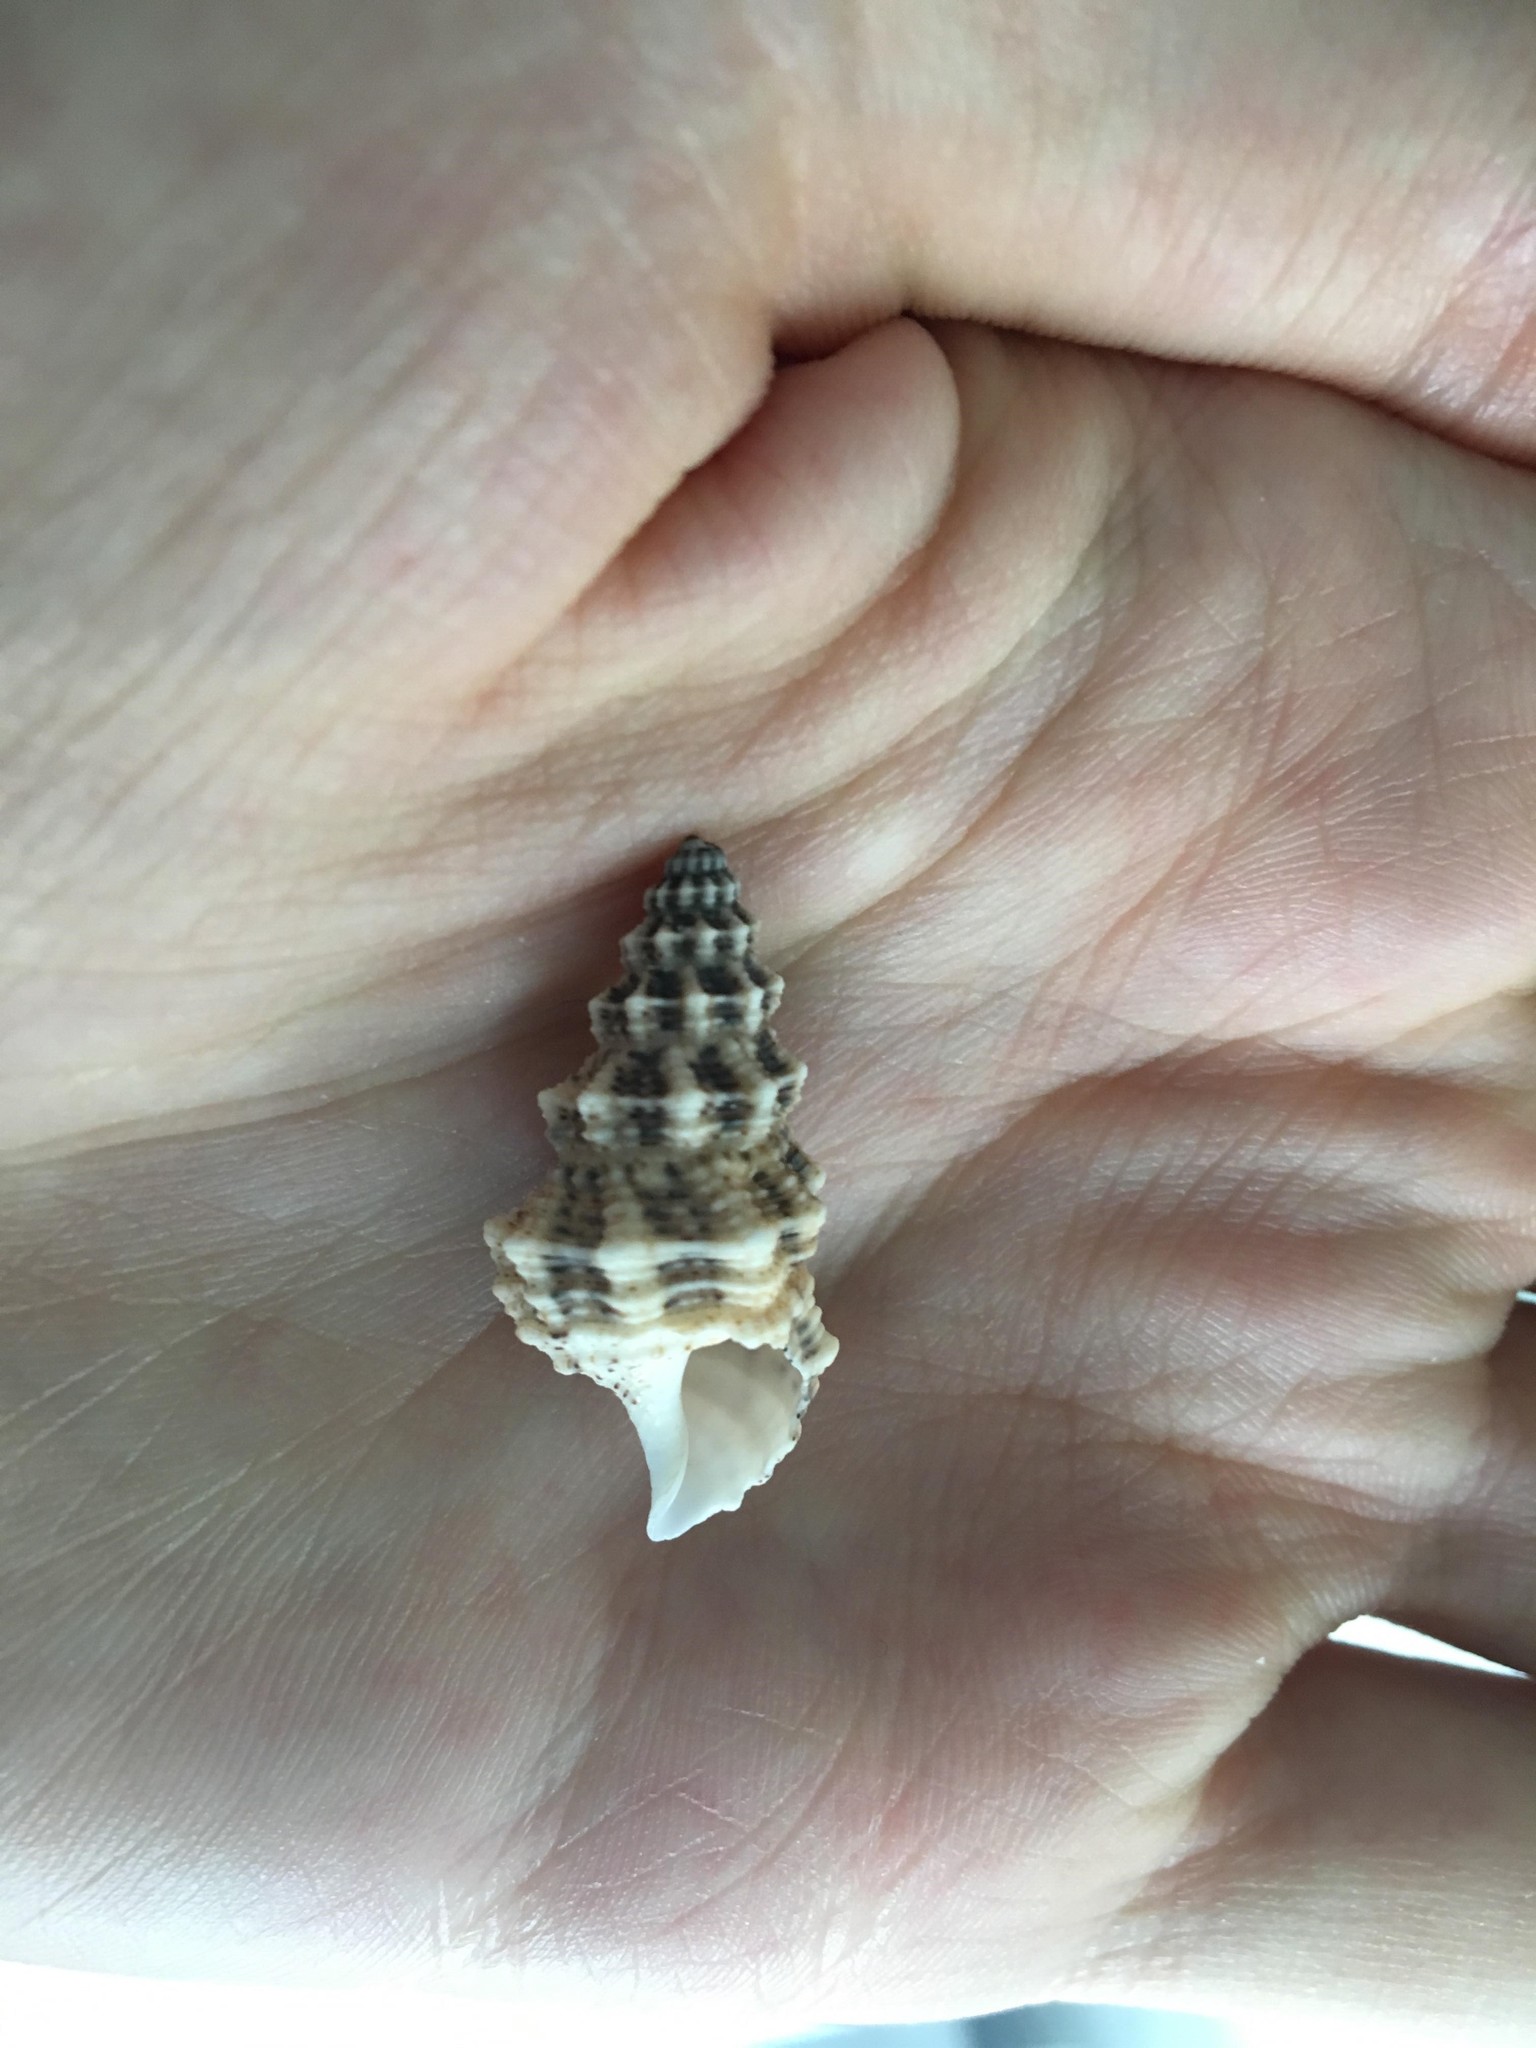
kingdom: Animalia
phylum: Mollusca
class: Gastropoda
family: Cerithiidae
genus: Cerithium
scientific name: Cerithium columna
